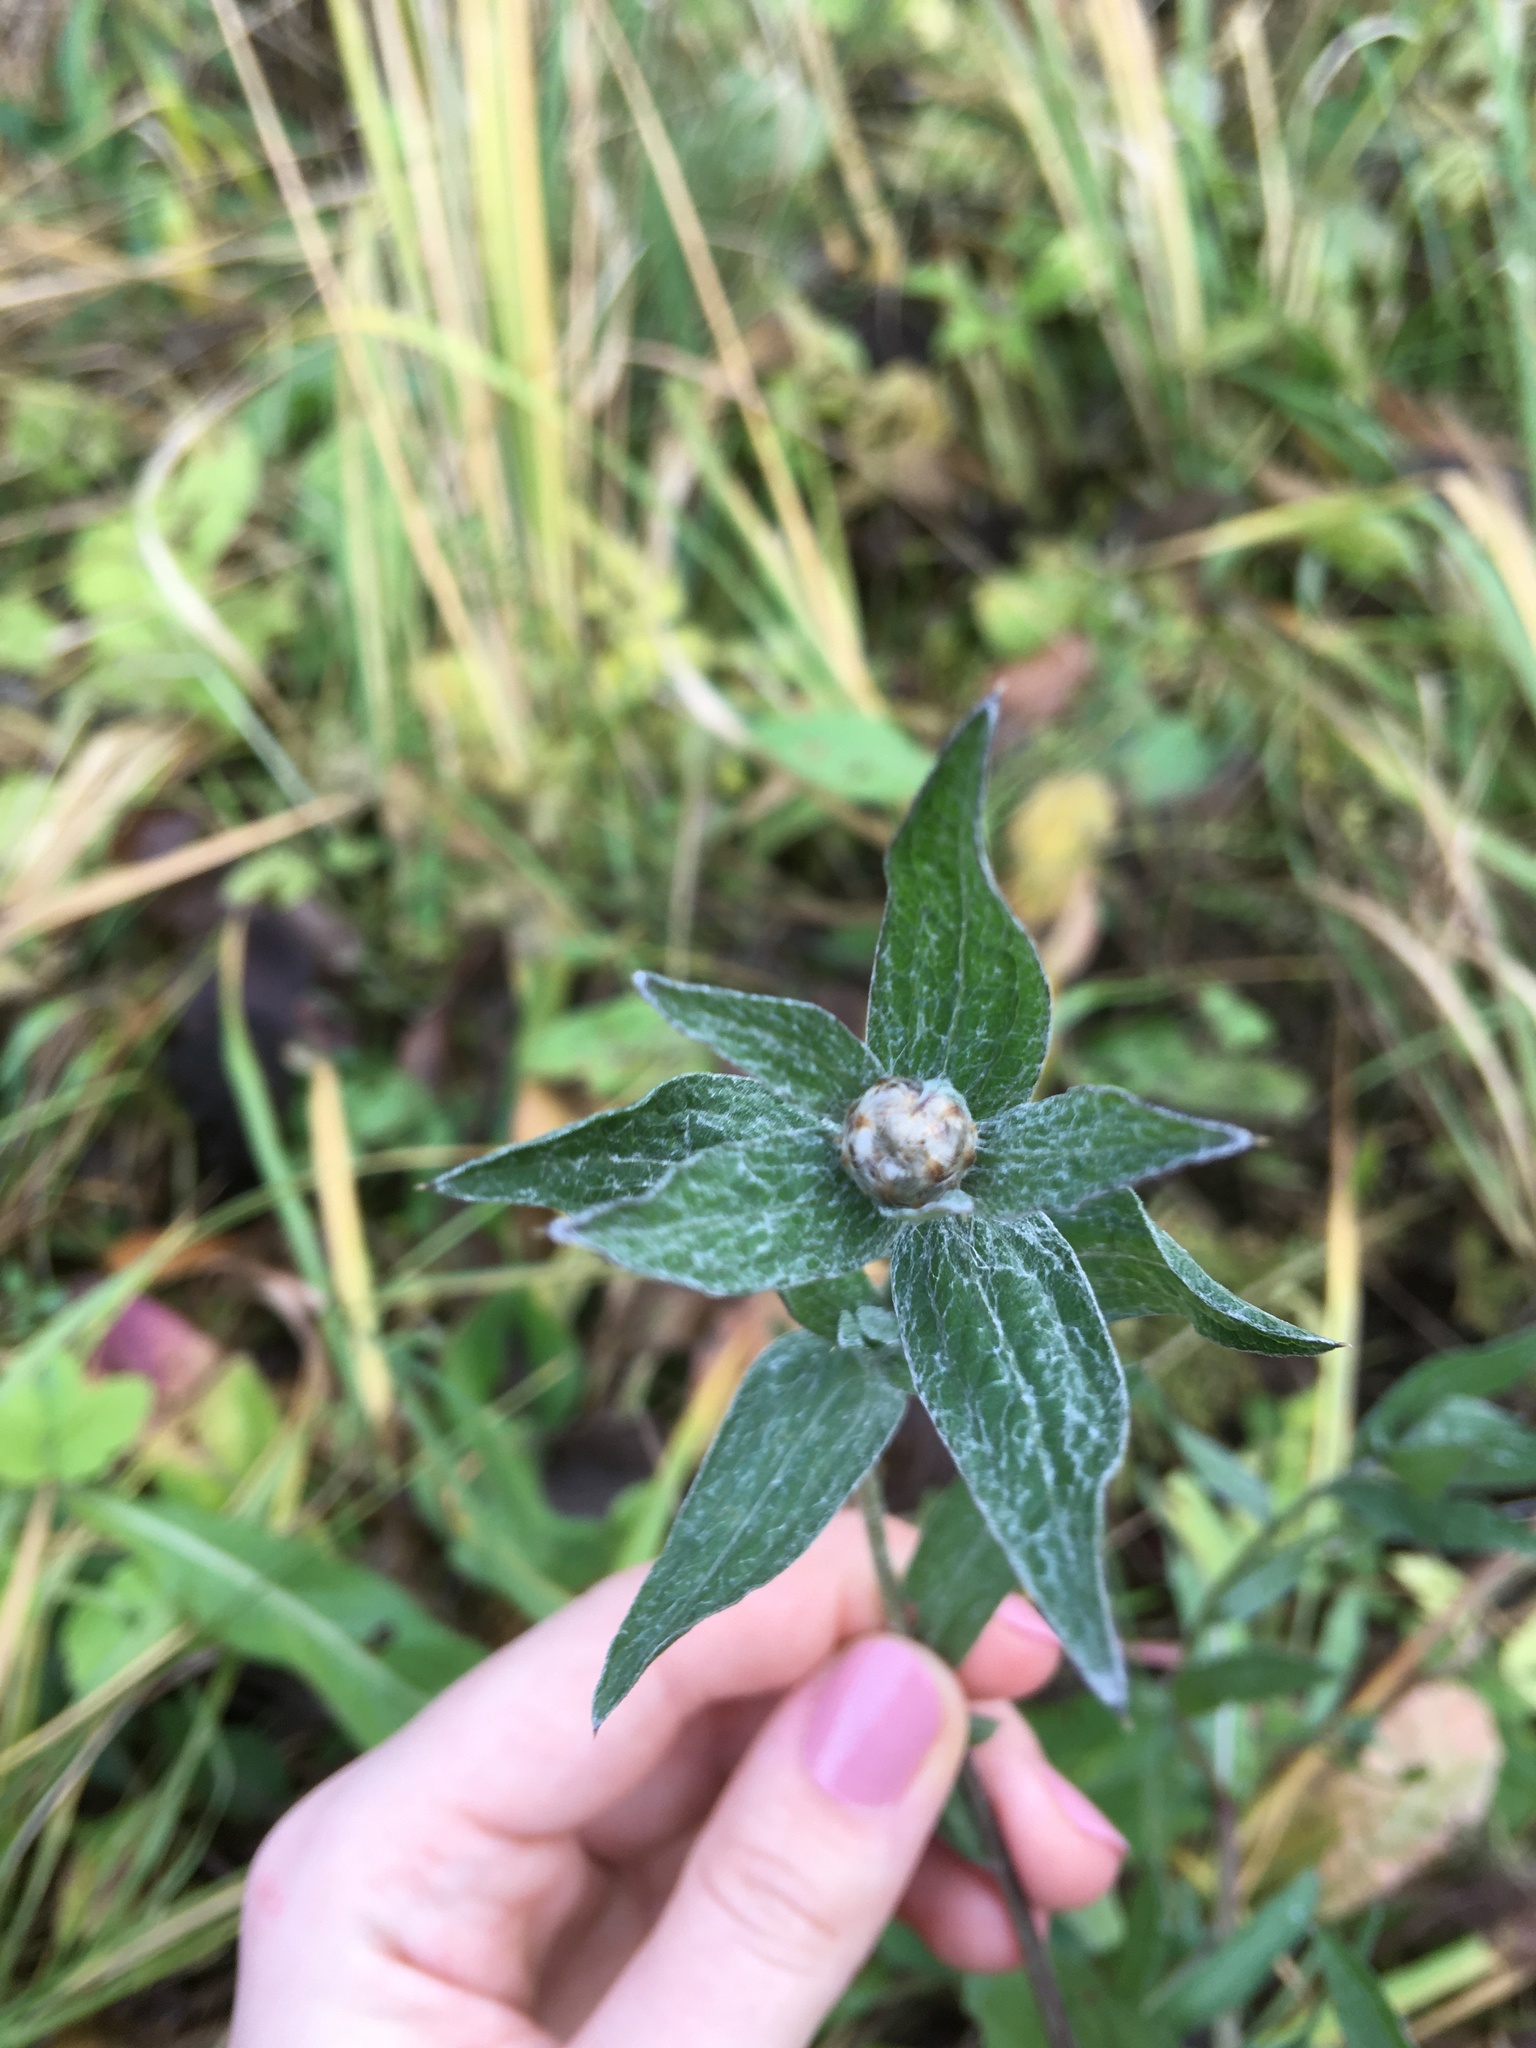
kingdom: Plantae
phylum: Tracheophyta
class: Magnoliopsida
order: Asterales
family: Asteraceae
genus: Centaurea
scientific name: Centaurea jacea
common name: Brown knapweed
